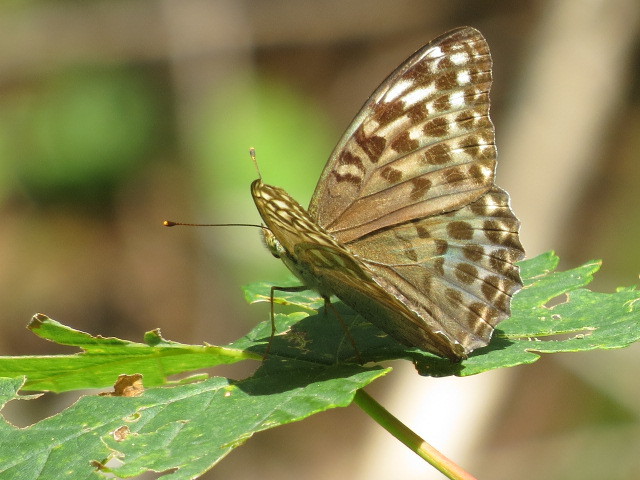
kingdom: Animalia
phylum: Arthropoda
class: Insecta
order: Lepidoptera
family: Nymphalidae
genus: Argynnis
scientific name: Argynnis paphia
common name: Silver-washed fritillary
